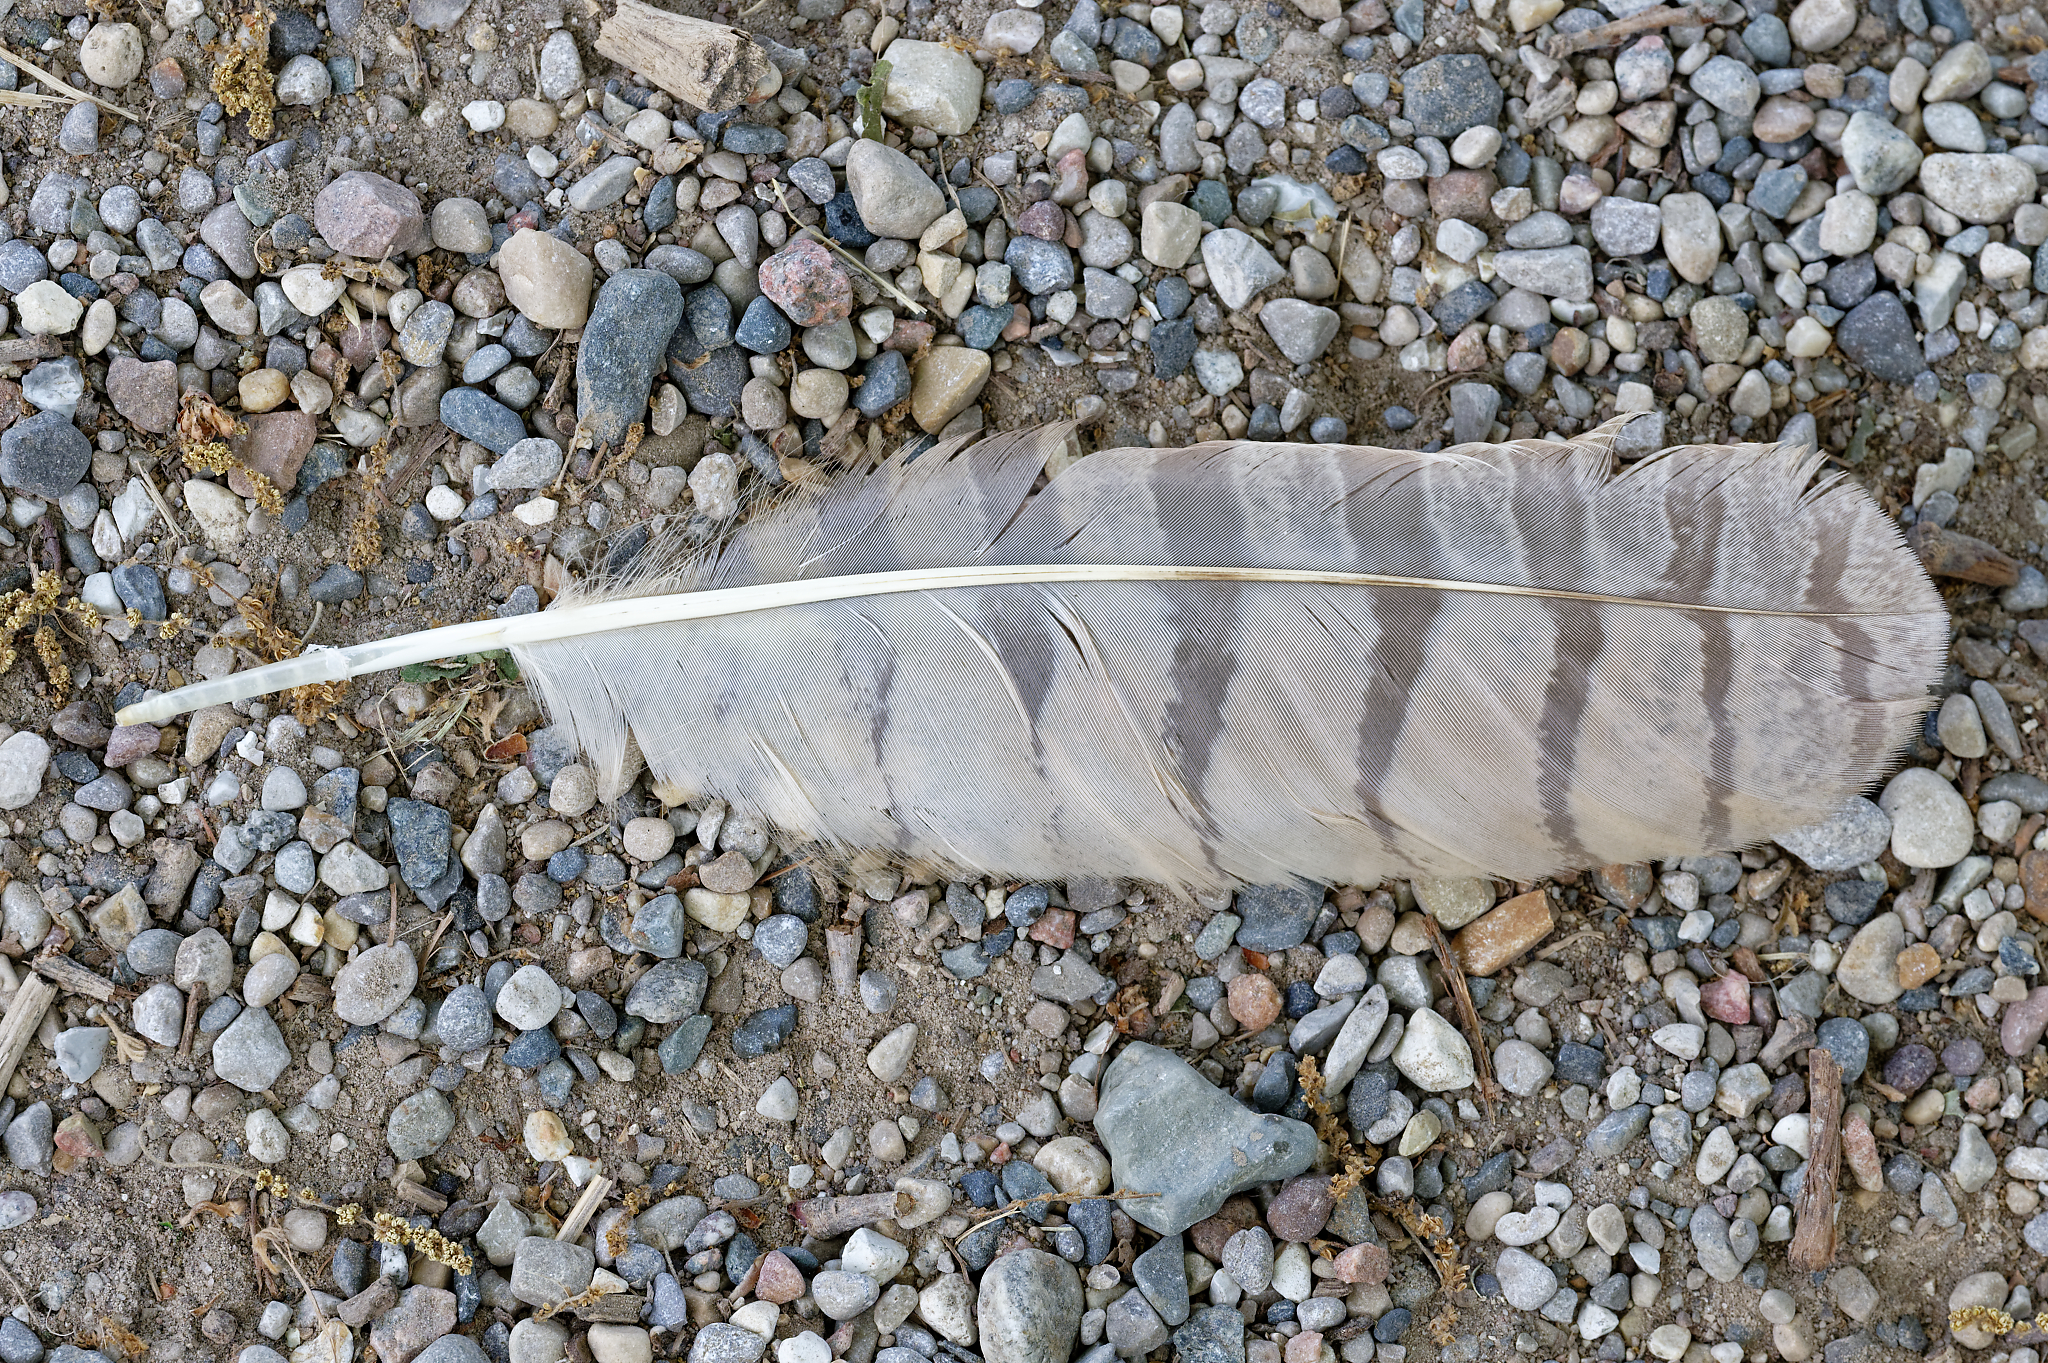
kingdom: Animalia
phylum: Chordata
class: Aves
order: Strigiformes
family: Strigidae
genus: Bubo
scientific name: Bubo virginianus
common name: Great horned owl
